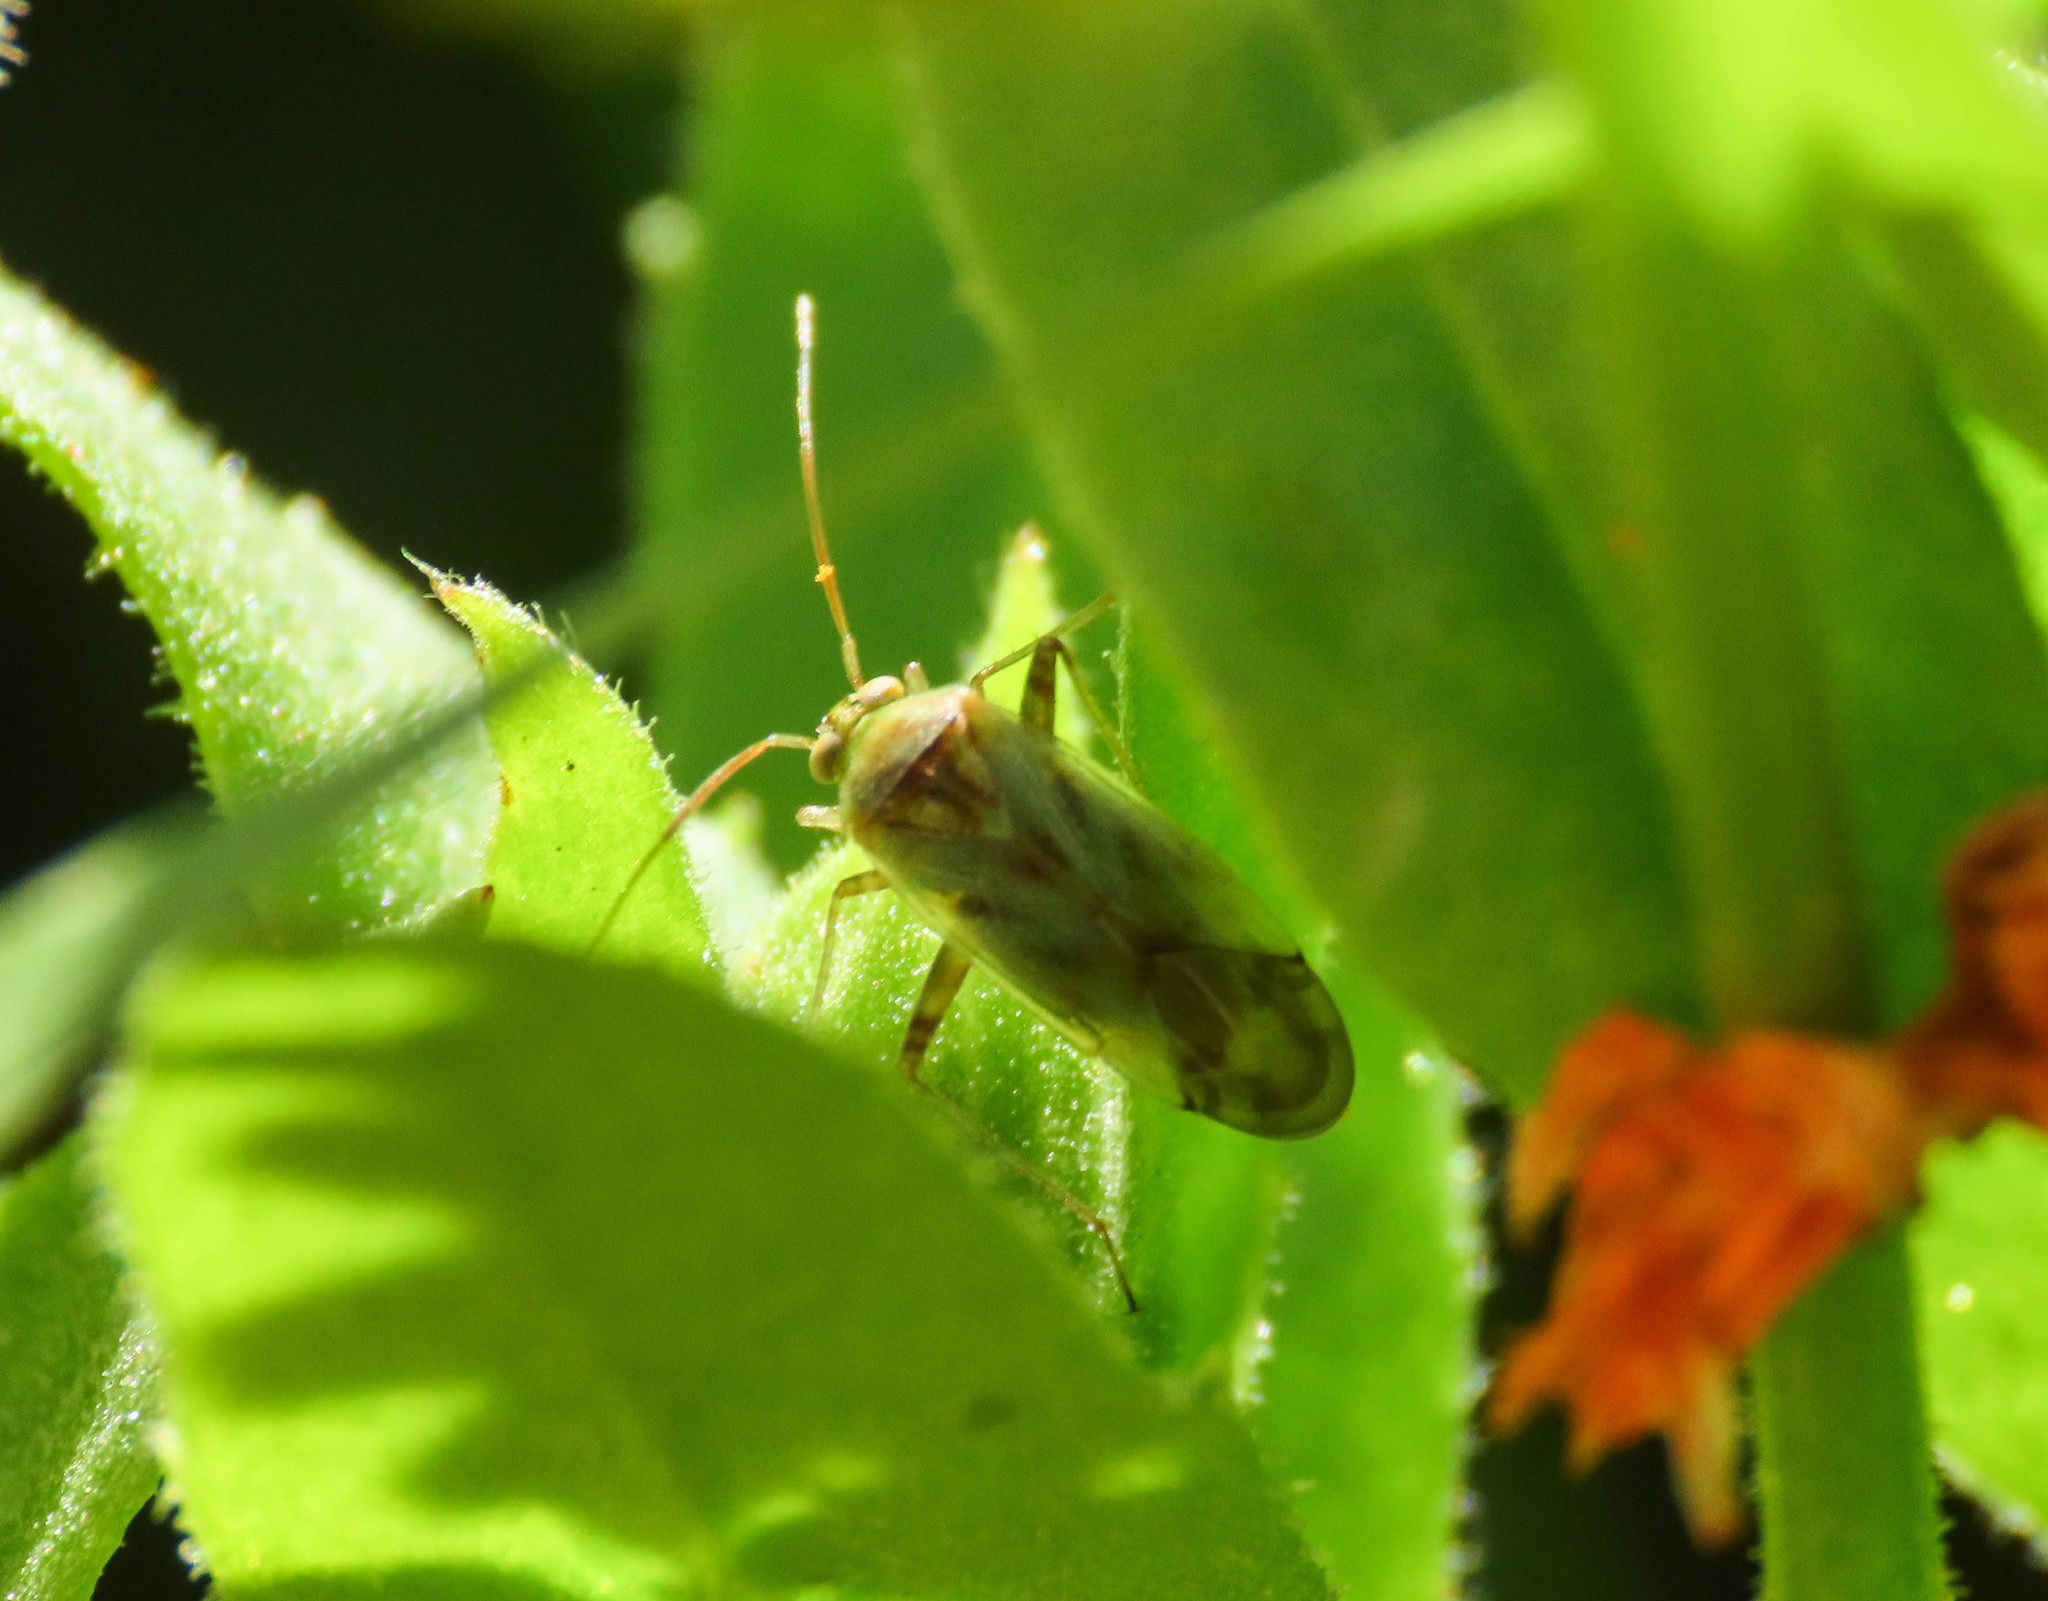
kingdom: Animalia
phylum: Arthropoda
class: Insecta
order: Hemiptera
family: Miridae
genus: Taylorilygus
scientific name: Taylorilygus apicalis
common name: Plant bug
